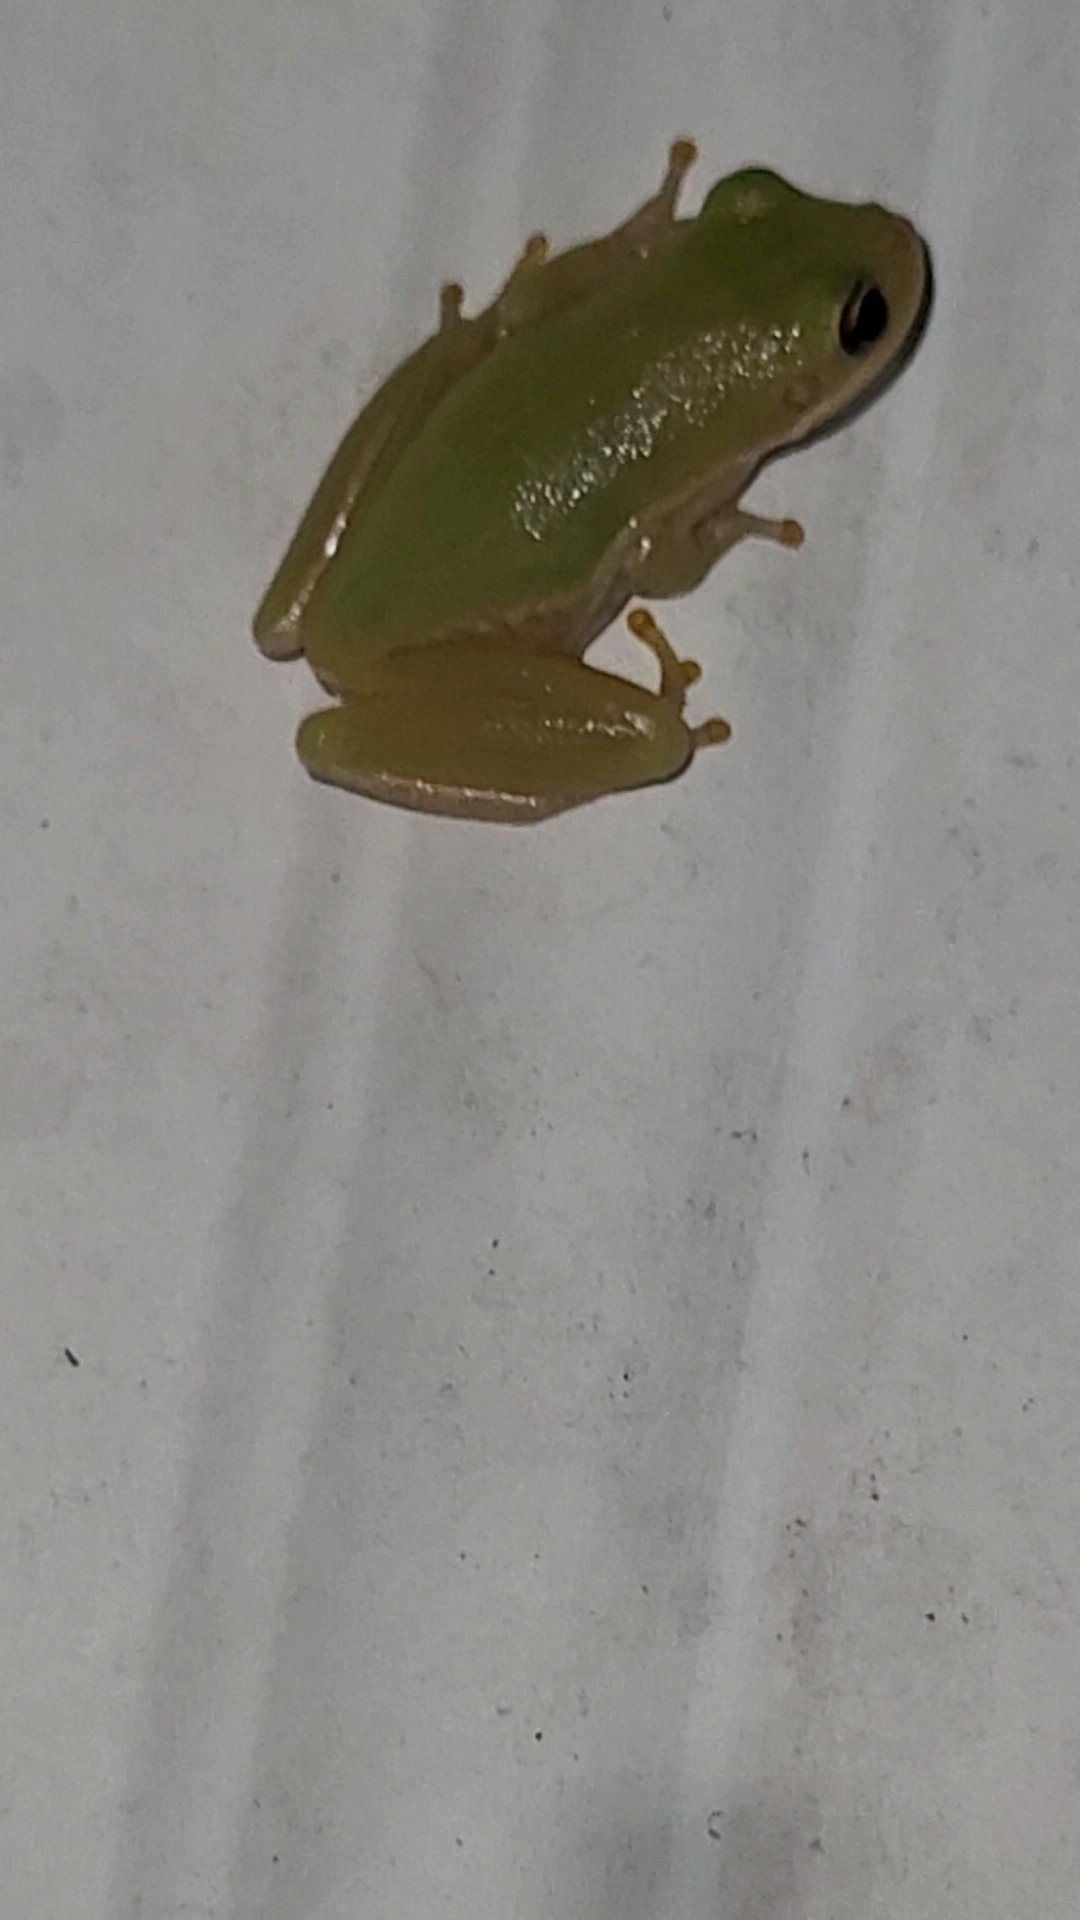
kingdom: Animalia
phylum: Chordata
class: Amphibia
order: Anura
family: Hylidae
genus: Dryophytes
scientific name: Dryophytes squirellus
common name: Squirrel treefrog
